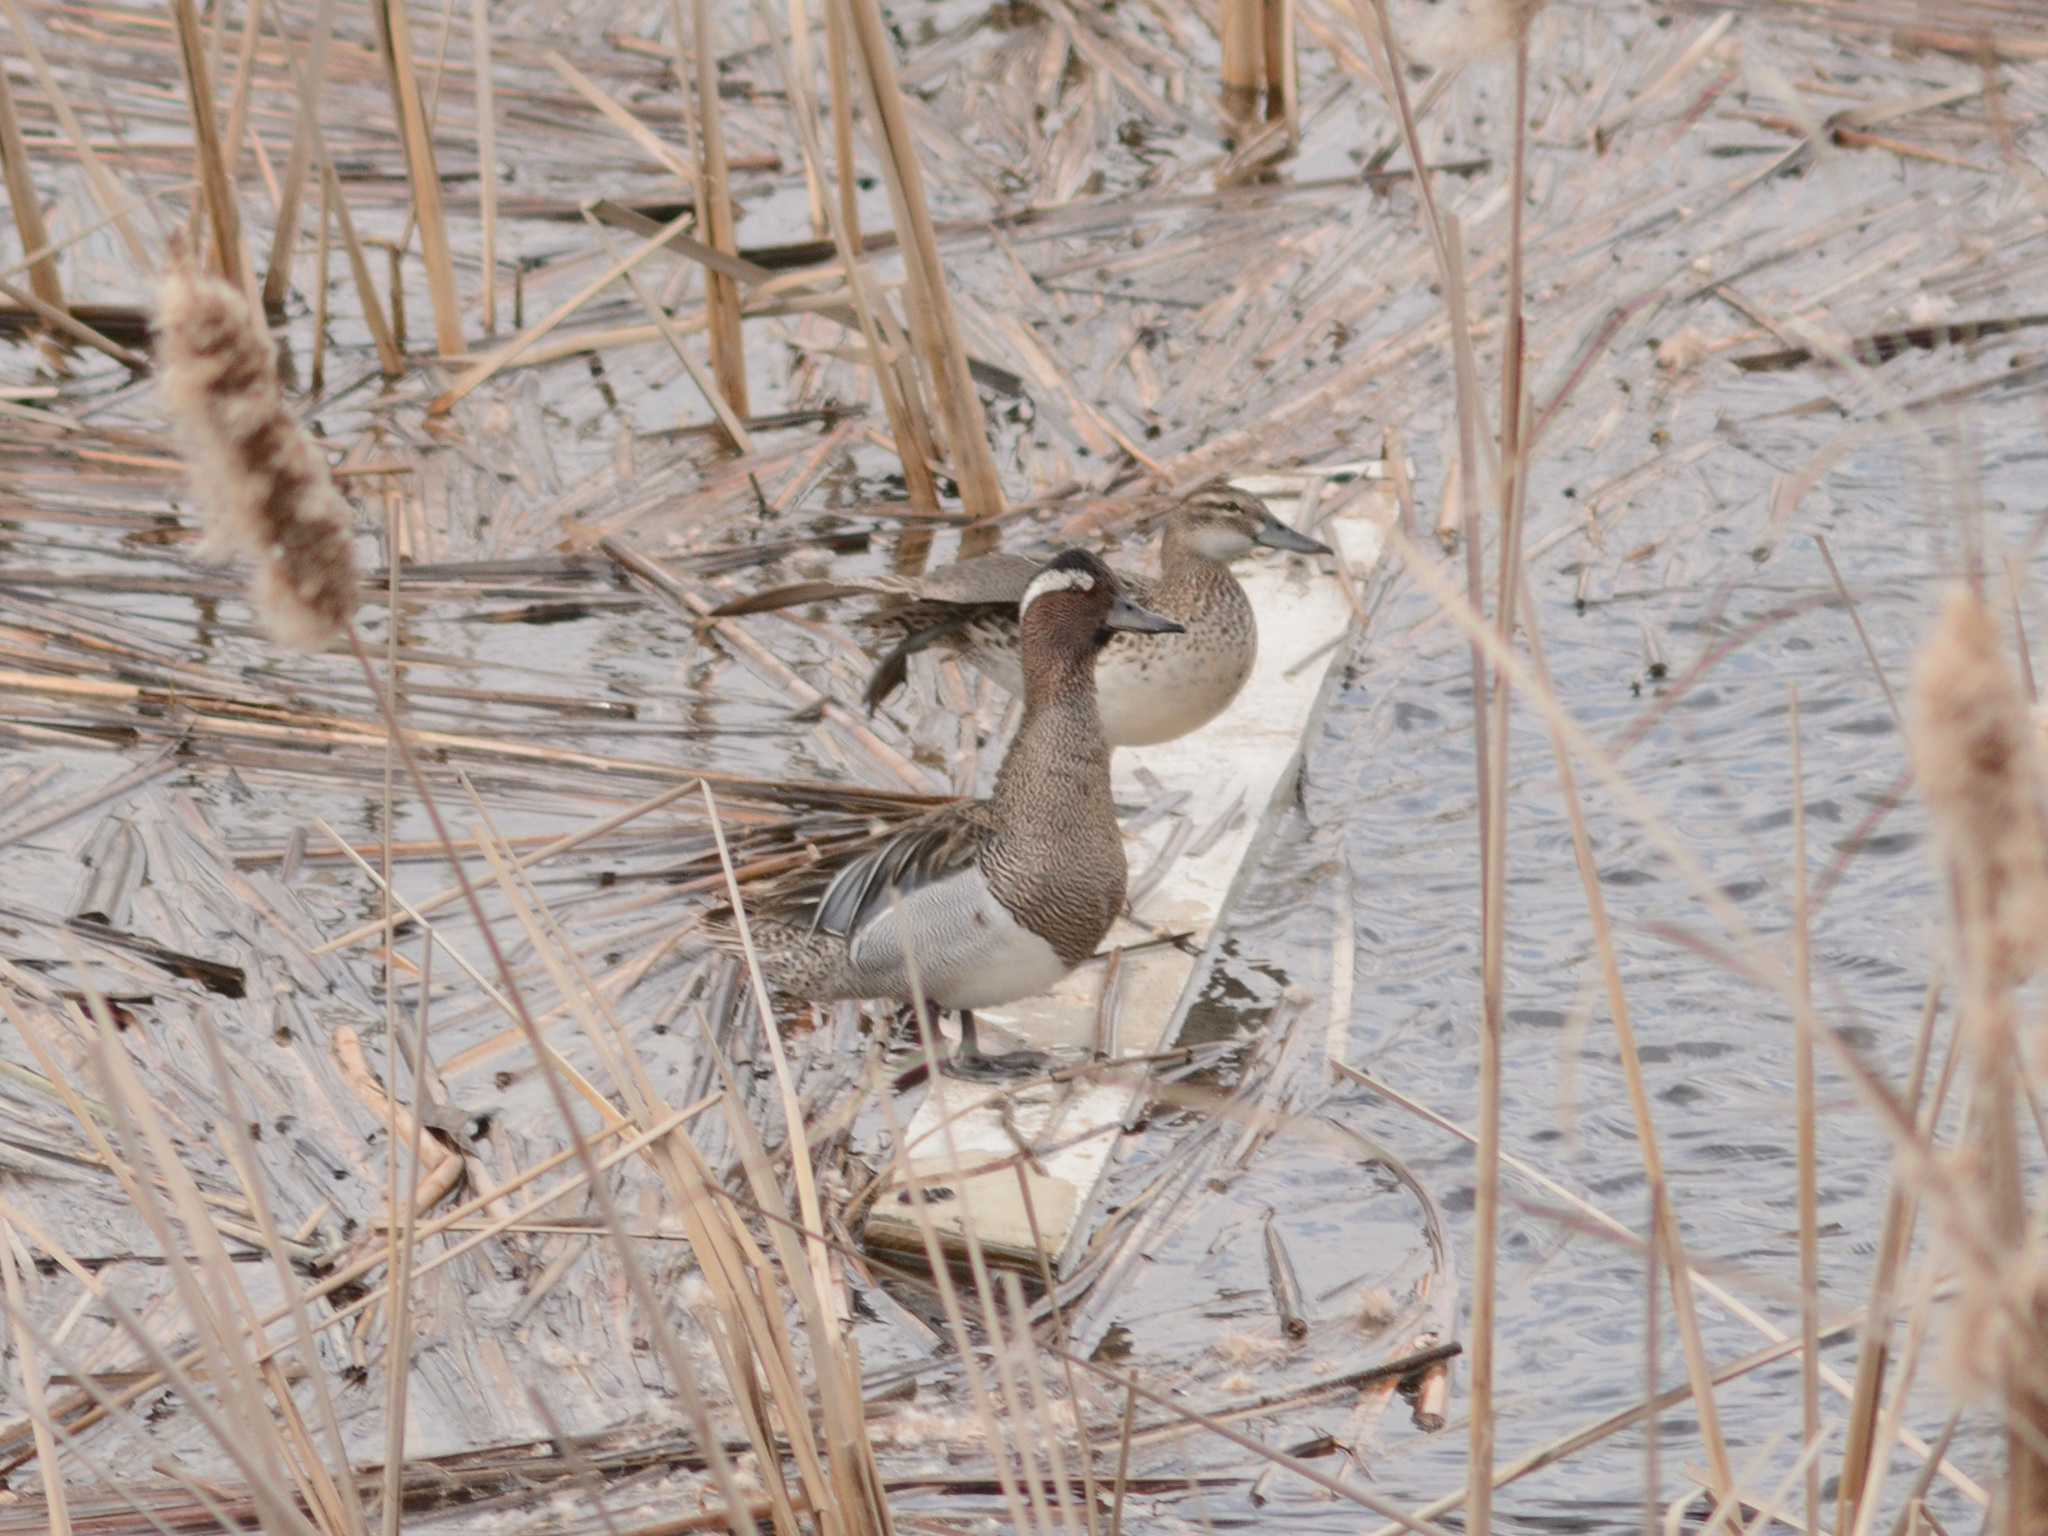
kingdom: Animalia
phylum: Chordata
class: Aves
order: Anseriformes
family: Anatidae
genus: Spatula
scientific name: Spatula querquedula
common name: Garganey
